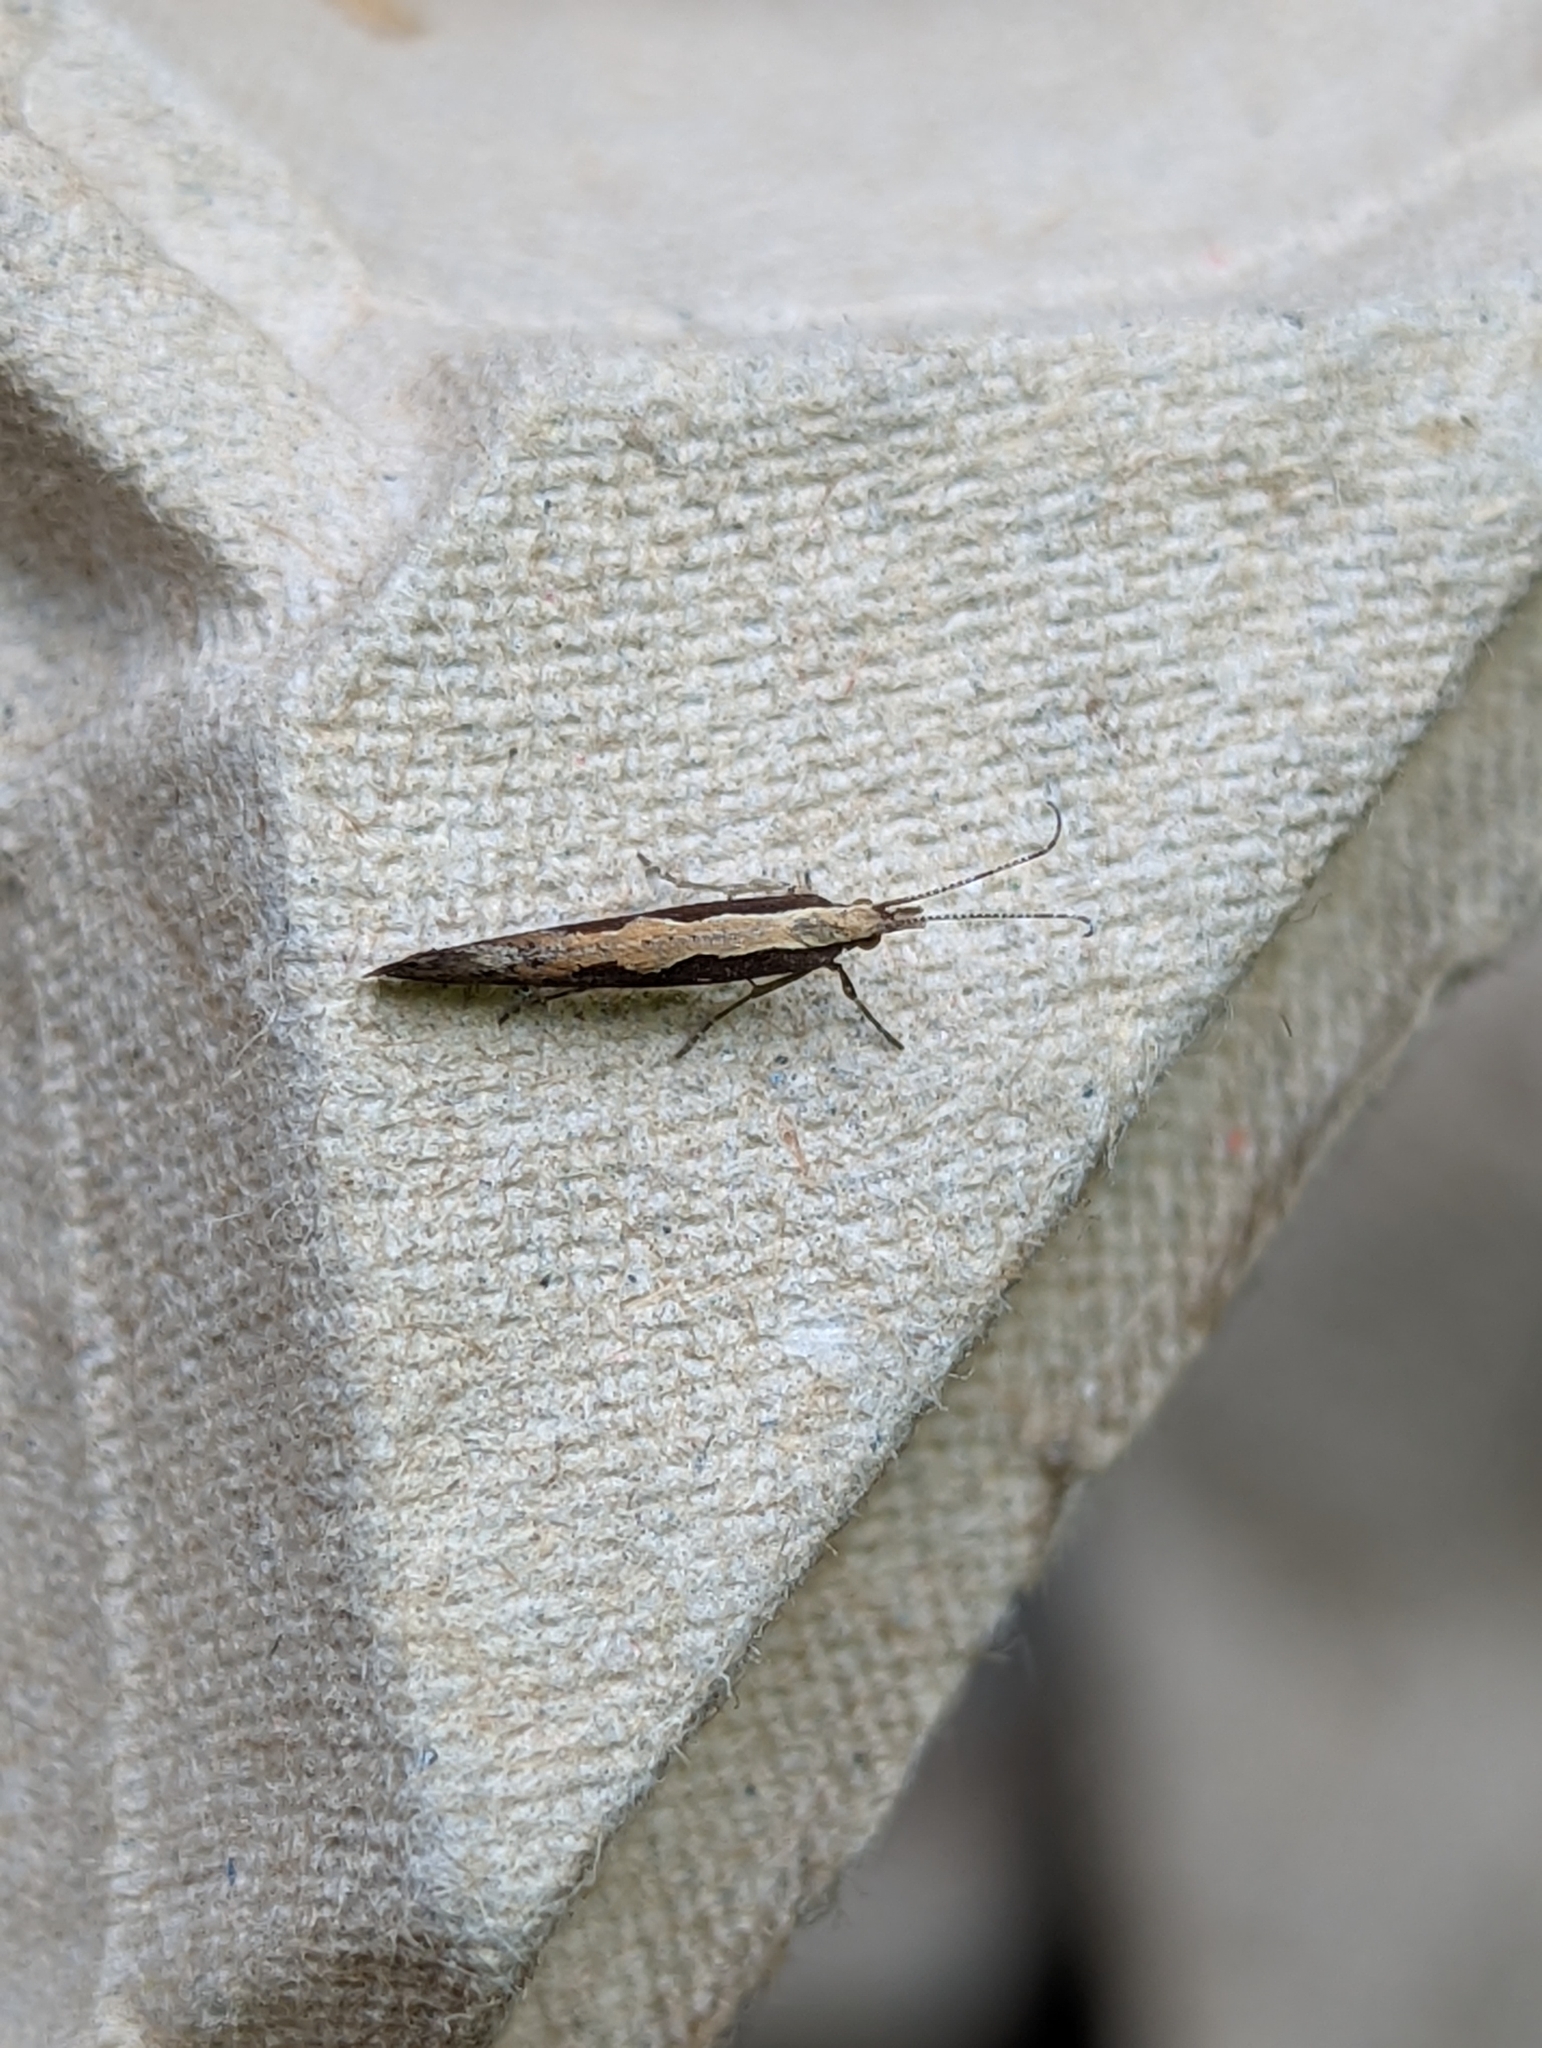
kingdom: Animalia
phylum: Arthropoda
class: Insecta
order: Lepidoptera
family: Plutellidae
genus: Plutella
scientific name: Plutella xylostella
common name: Diamond-back moth
